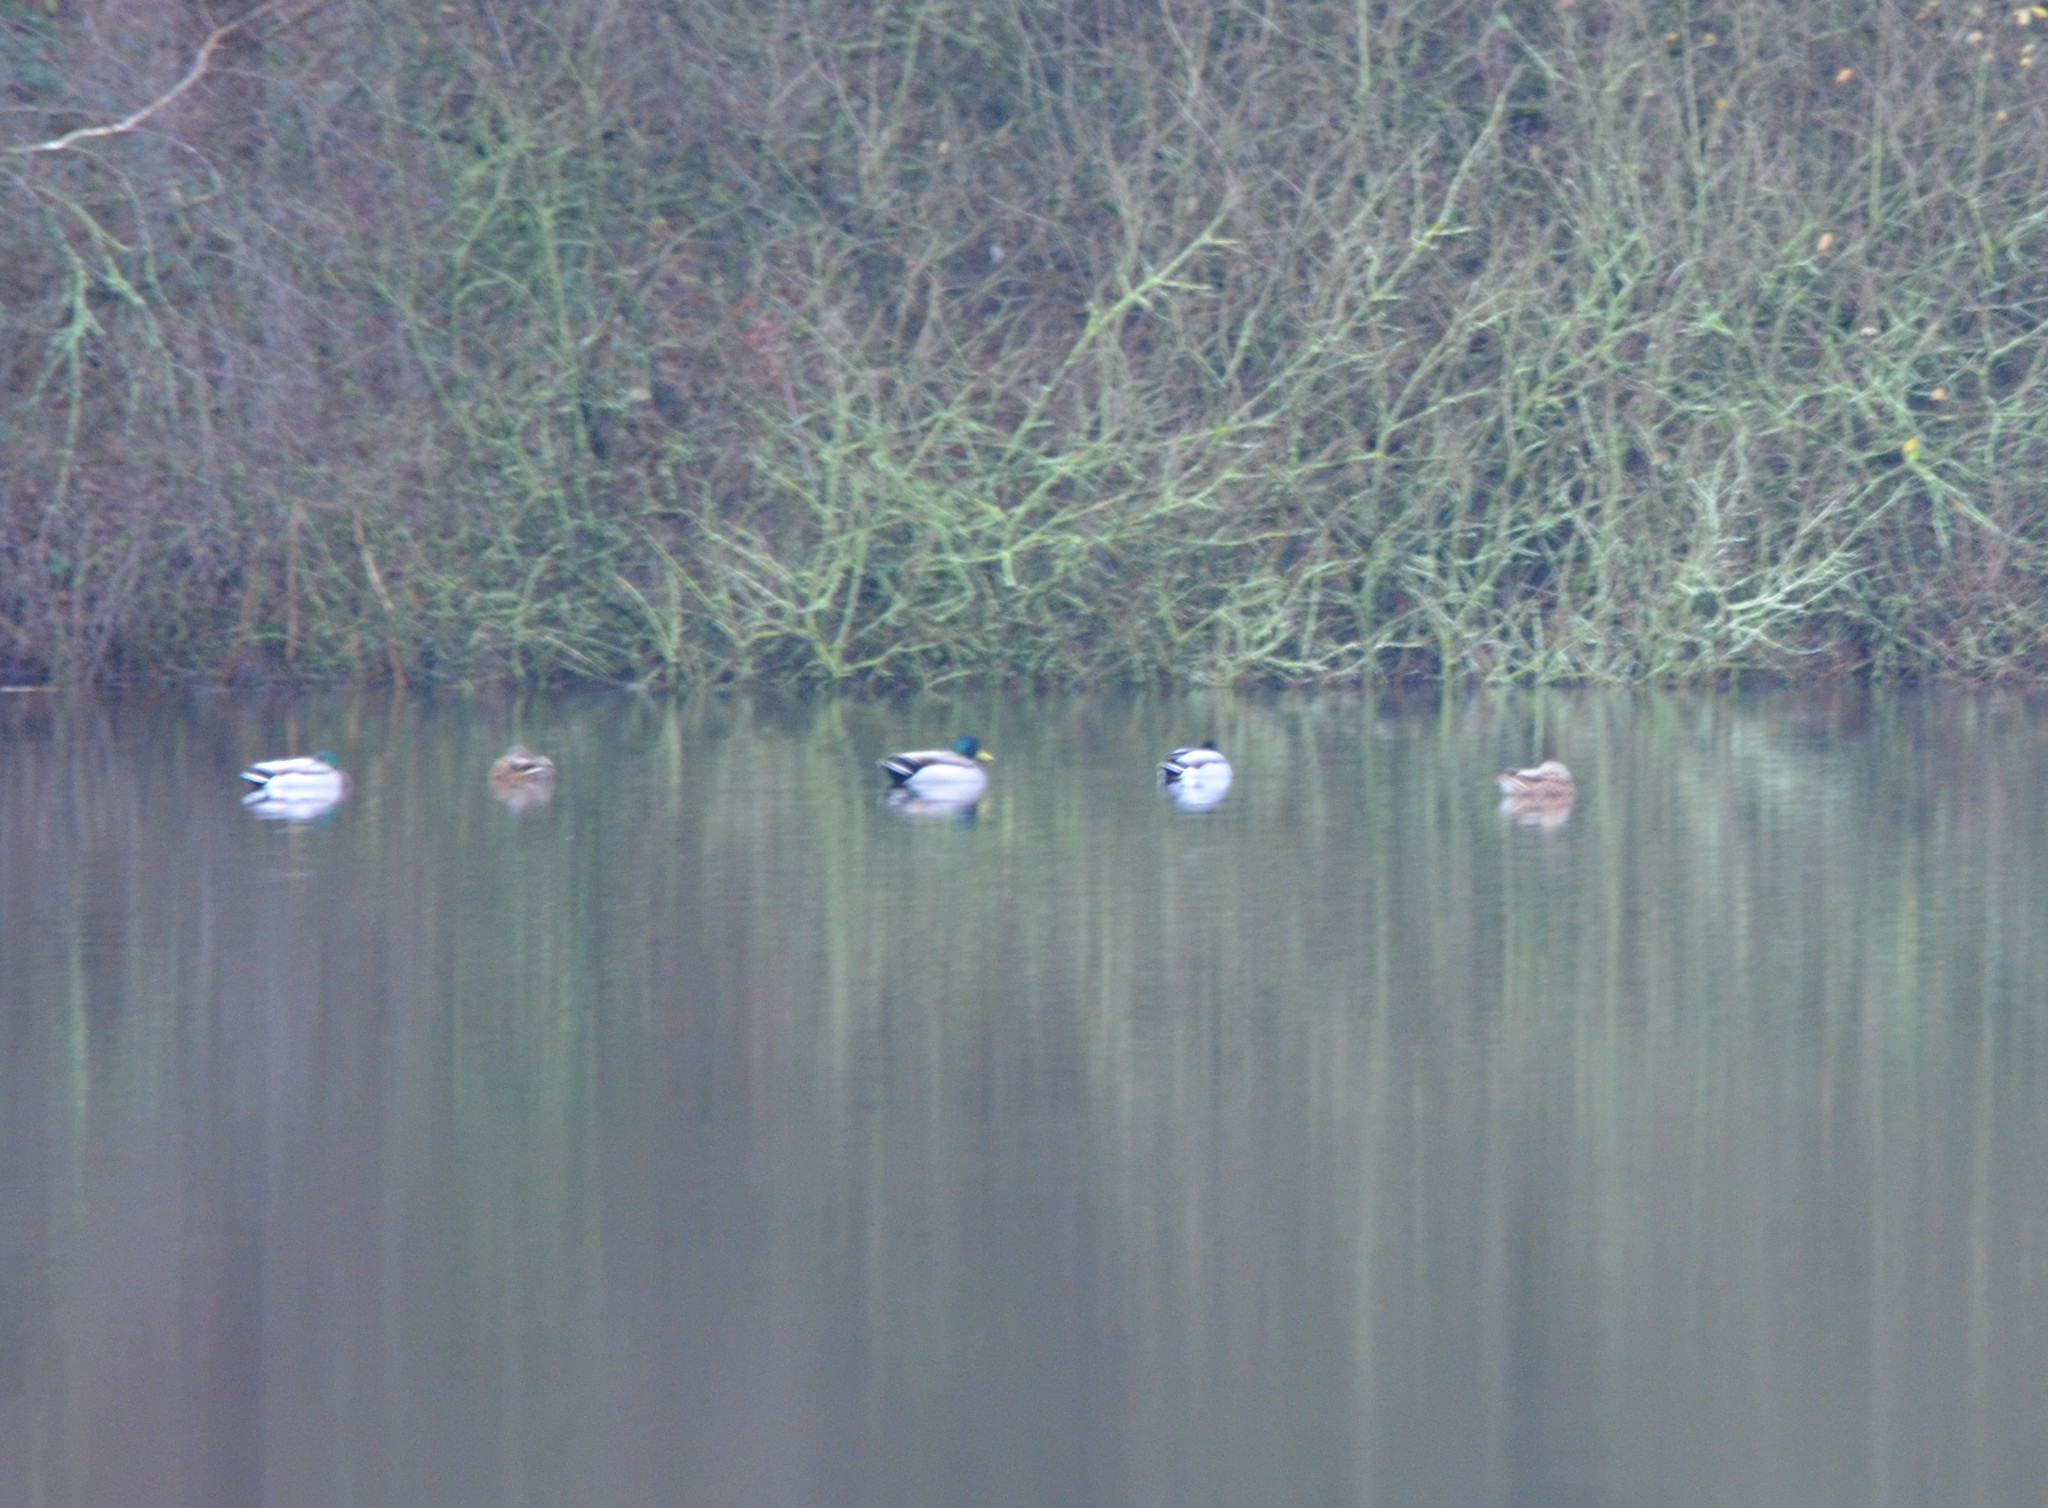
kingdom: Animalia
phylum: Chordata
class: Aves
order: Anseriformes
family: Anatidae
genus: Anas
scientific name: Anas platyrhynchos
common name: Mallard
